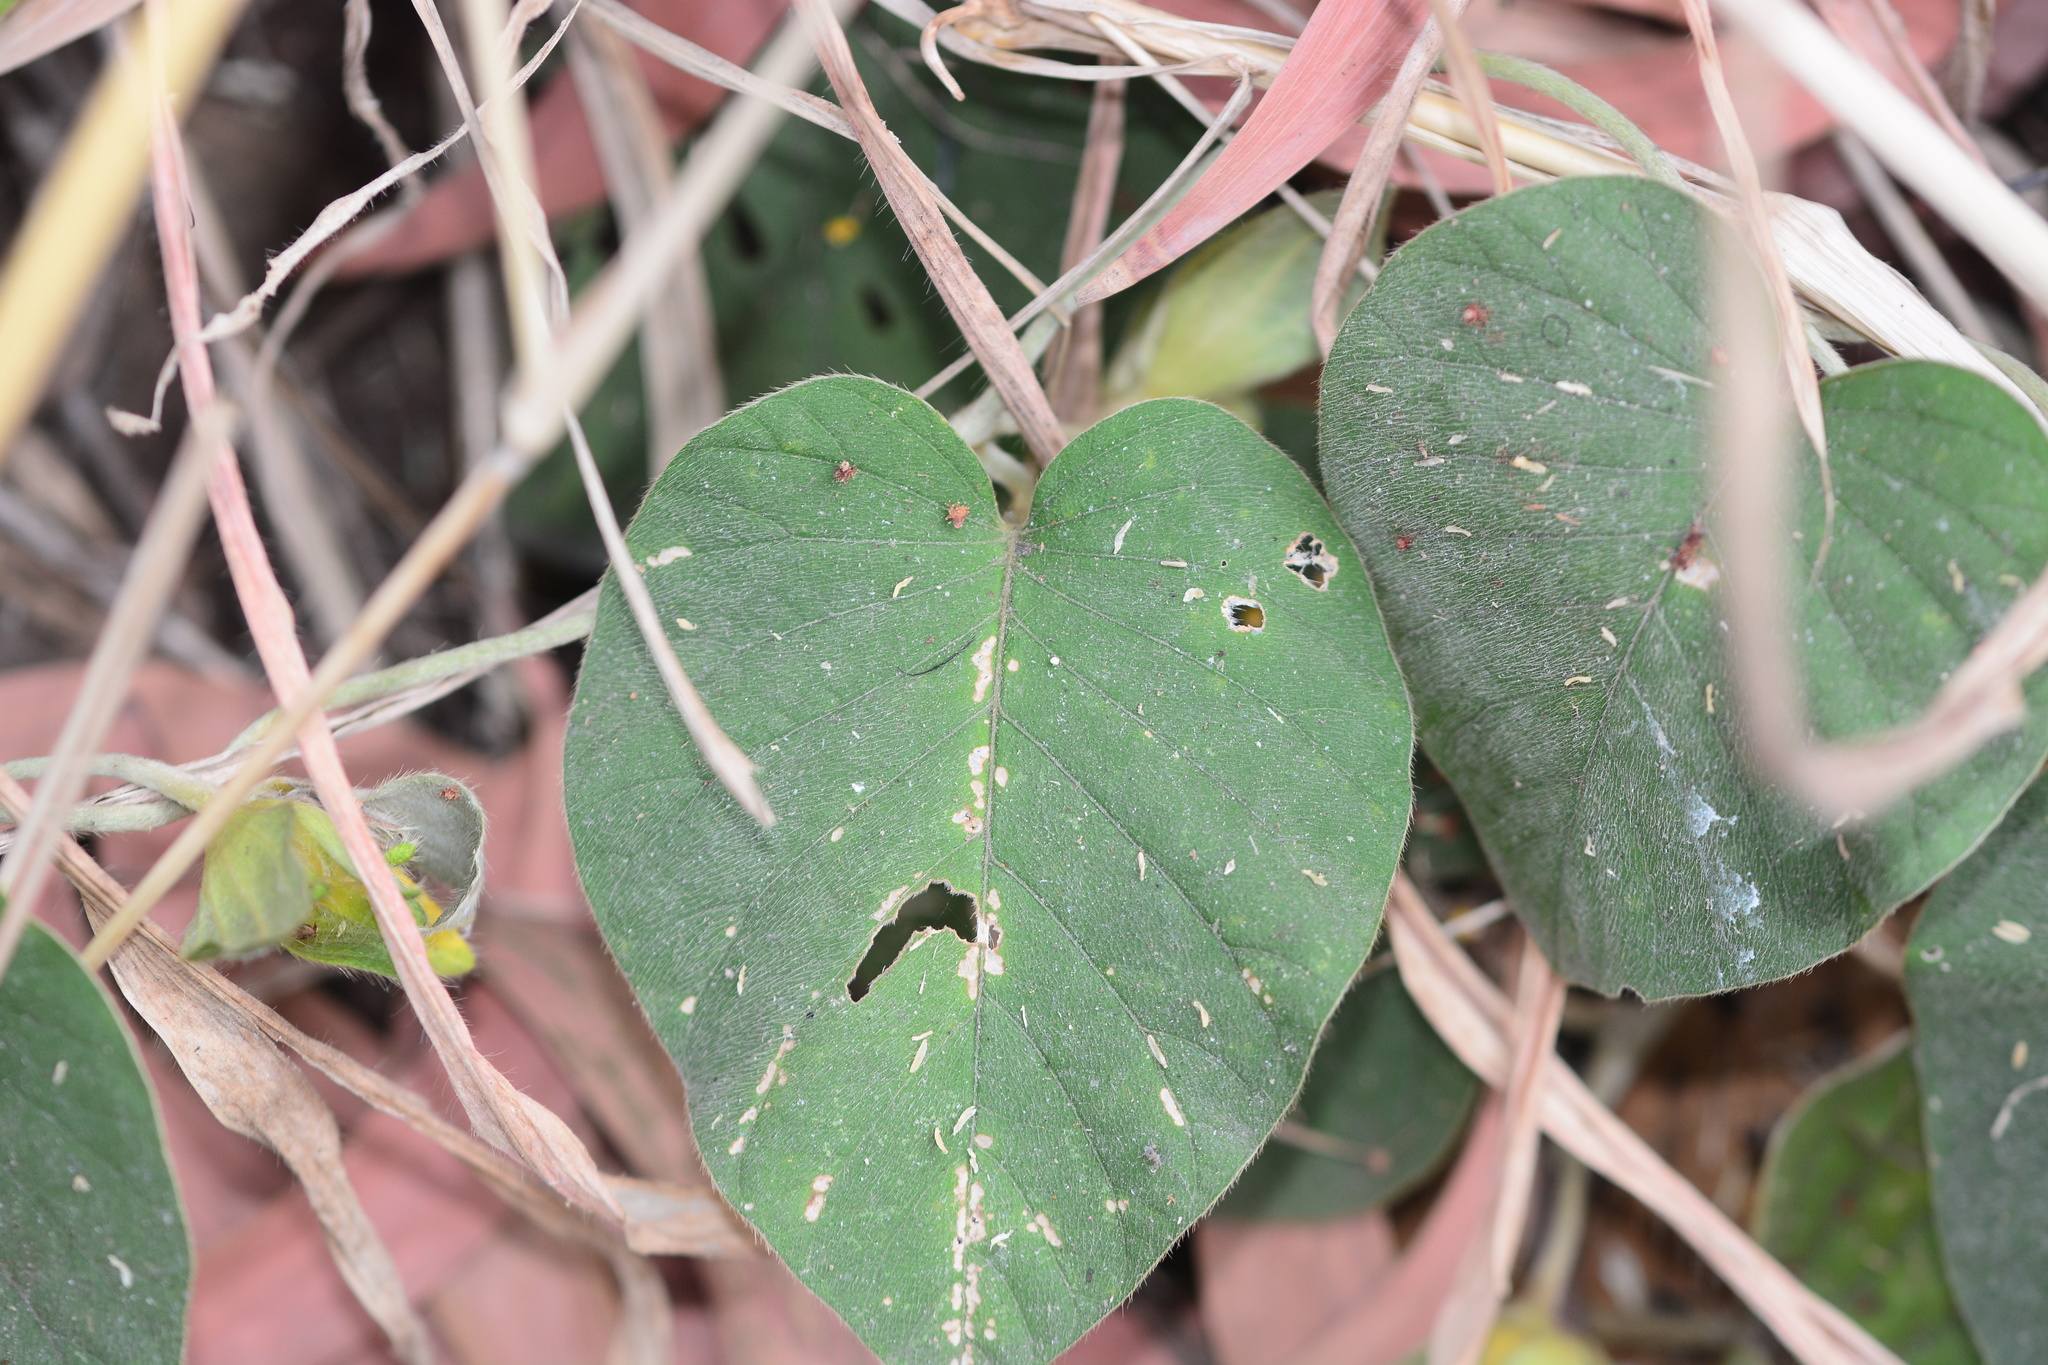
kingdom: Plantae
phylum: Tracheophyta
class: Magnoliopsida
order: Solanales
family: Convolvulaceae
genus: Argyreia
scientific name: Argyreia sericea
